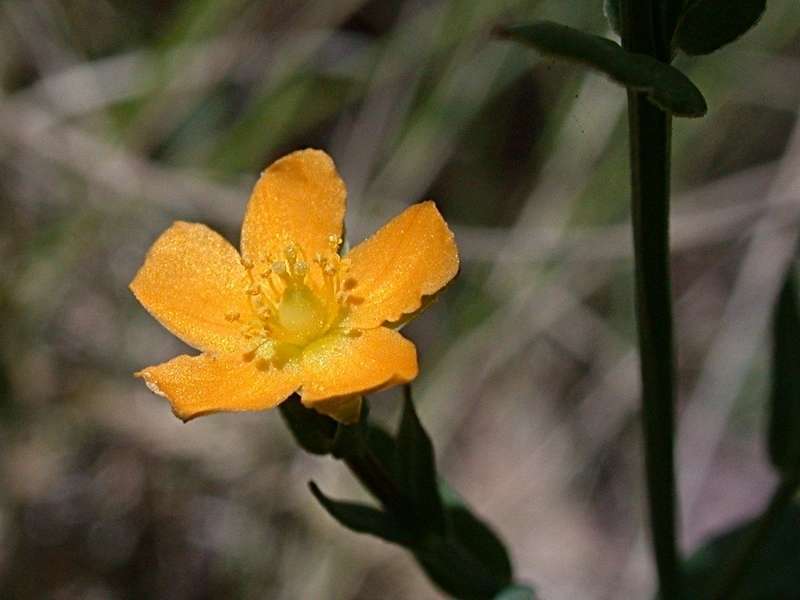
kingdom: Plantae
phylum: Tracheophyta
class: Magnoliopsida
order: Malpighiales
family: Hypericaceae
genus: Hypericum
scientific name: Hypericum gramineum
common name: Grassy st. johnswort
